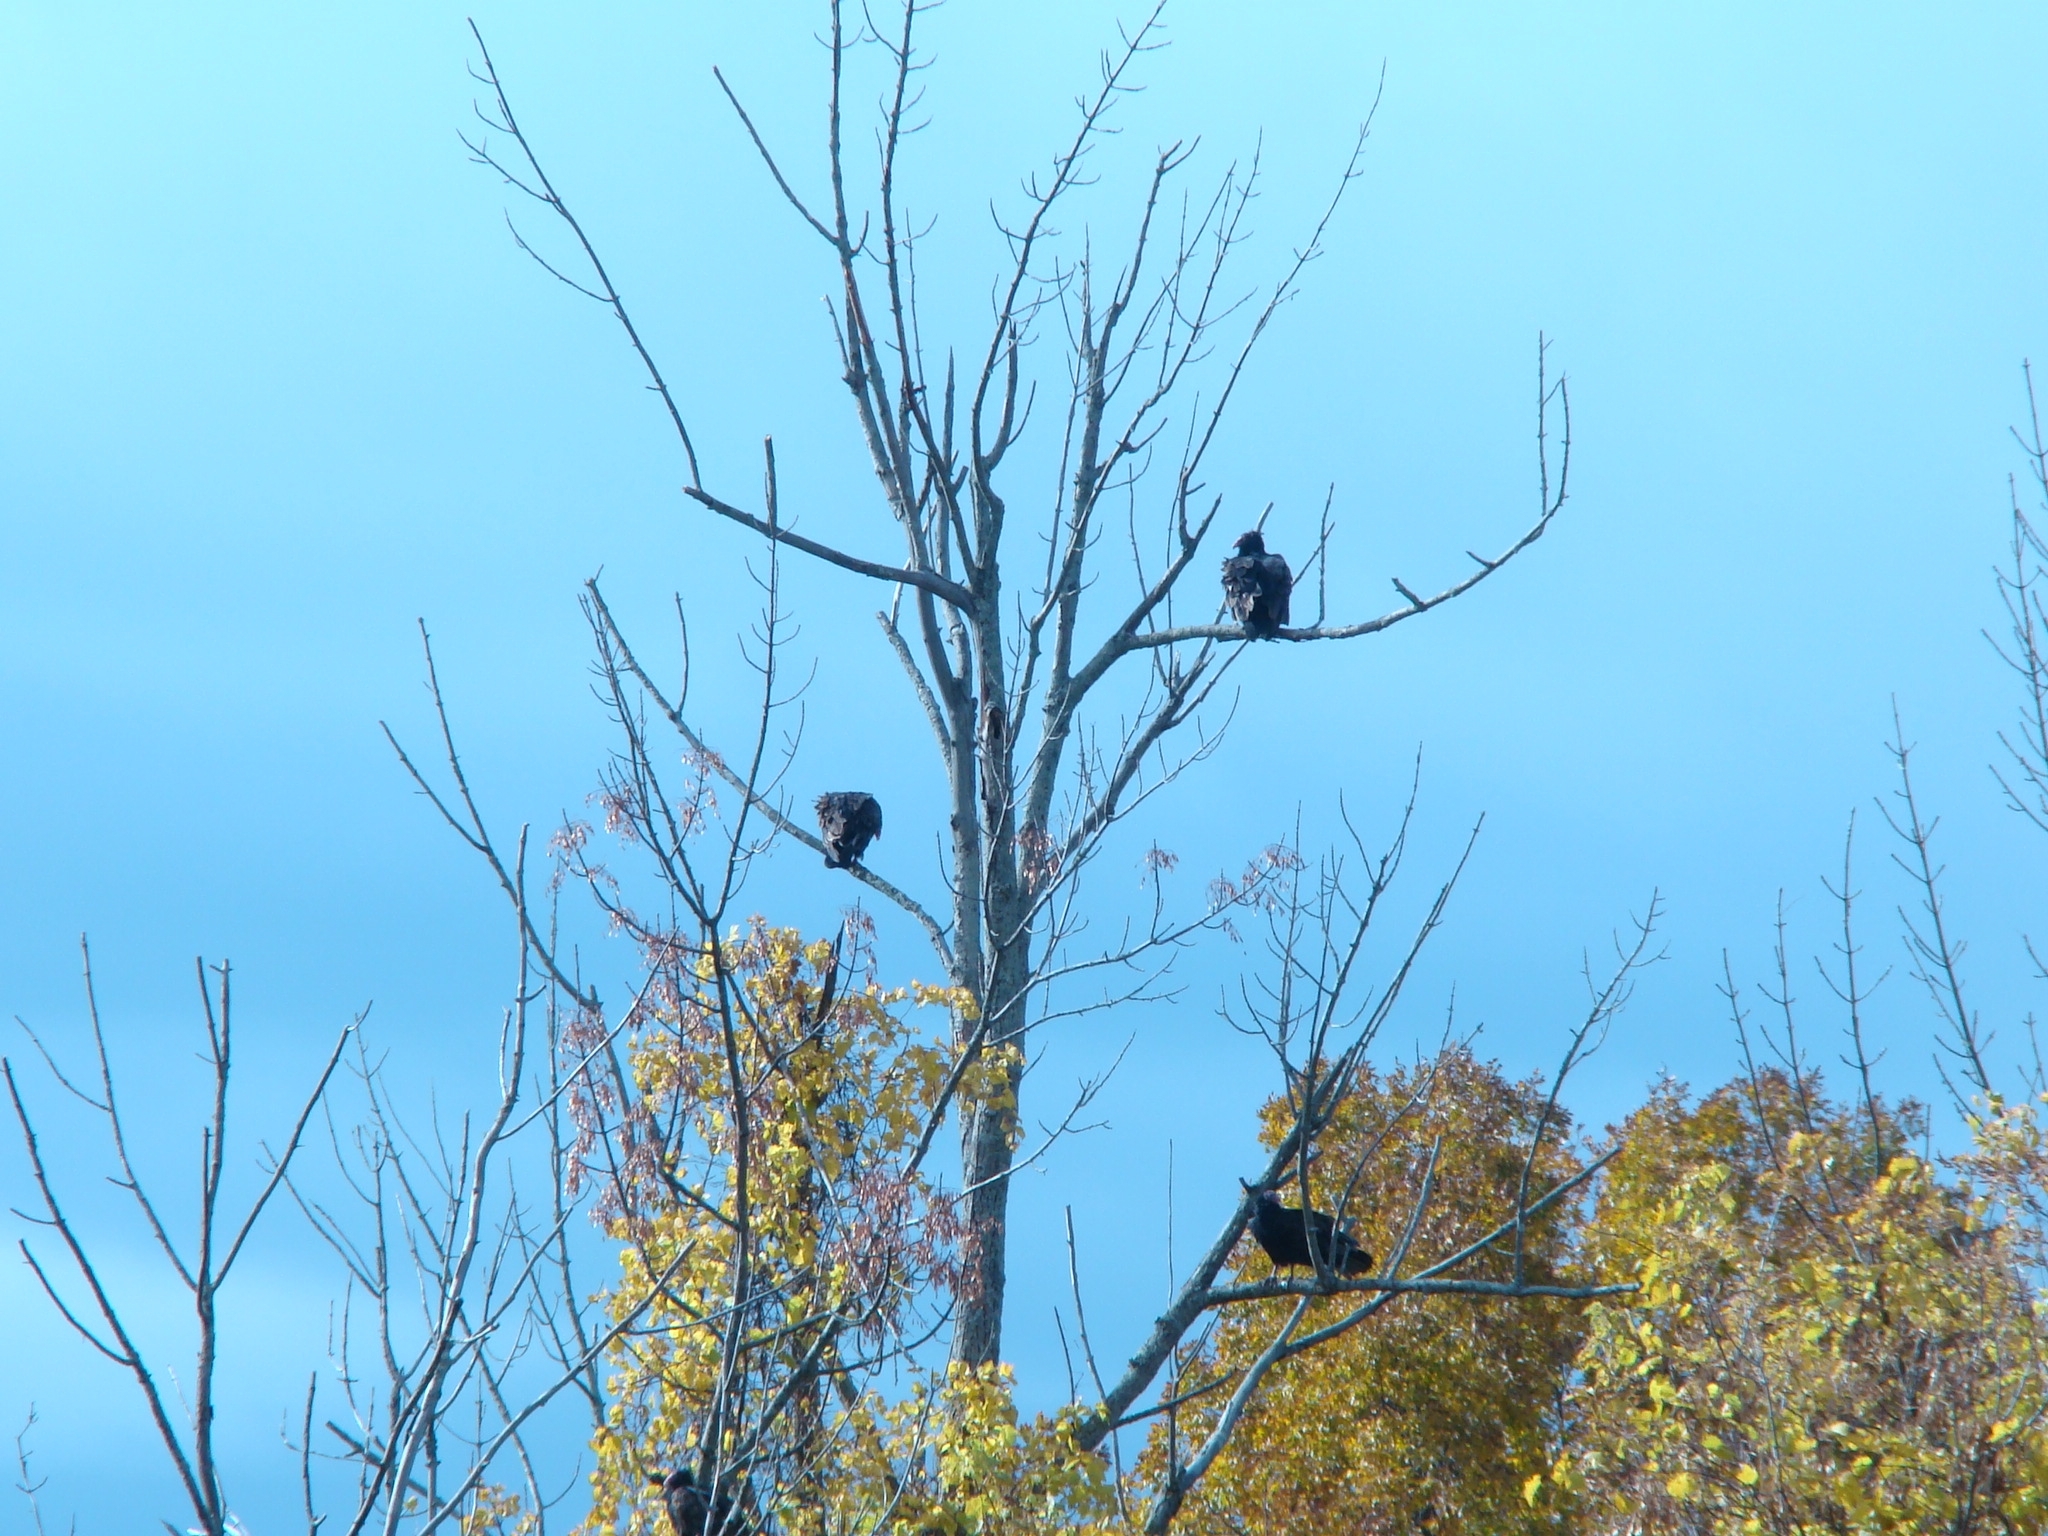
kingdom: Animalia
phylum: Chordata
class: Aves
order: Accipitriformes
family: Cathartidae
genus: Cathartes
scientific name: Cathartes aura
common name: Turkey vulture
